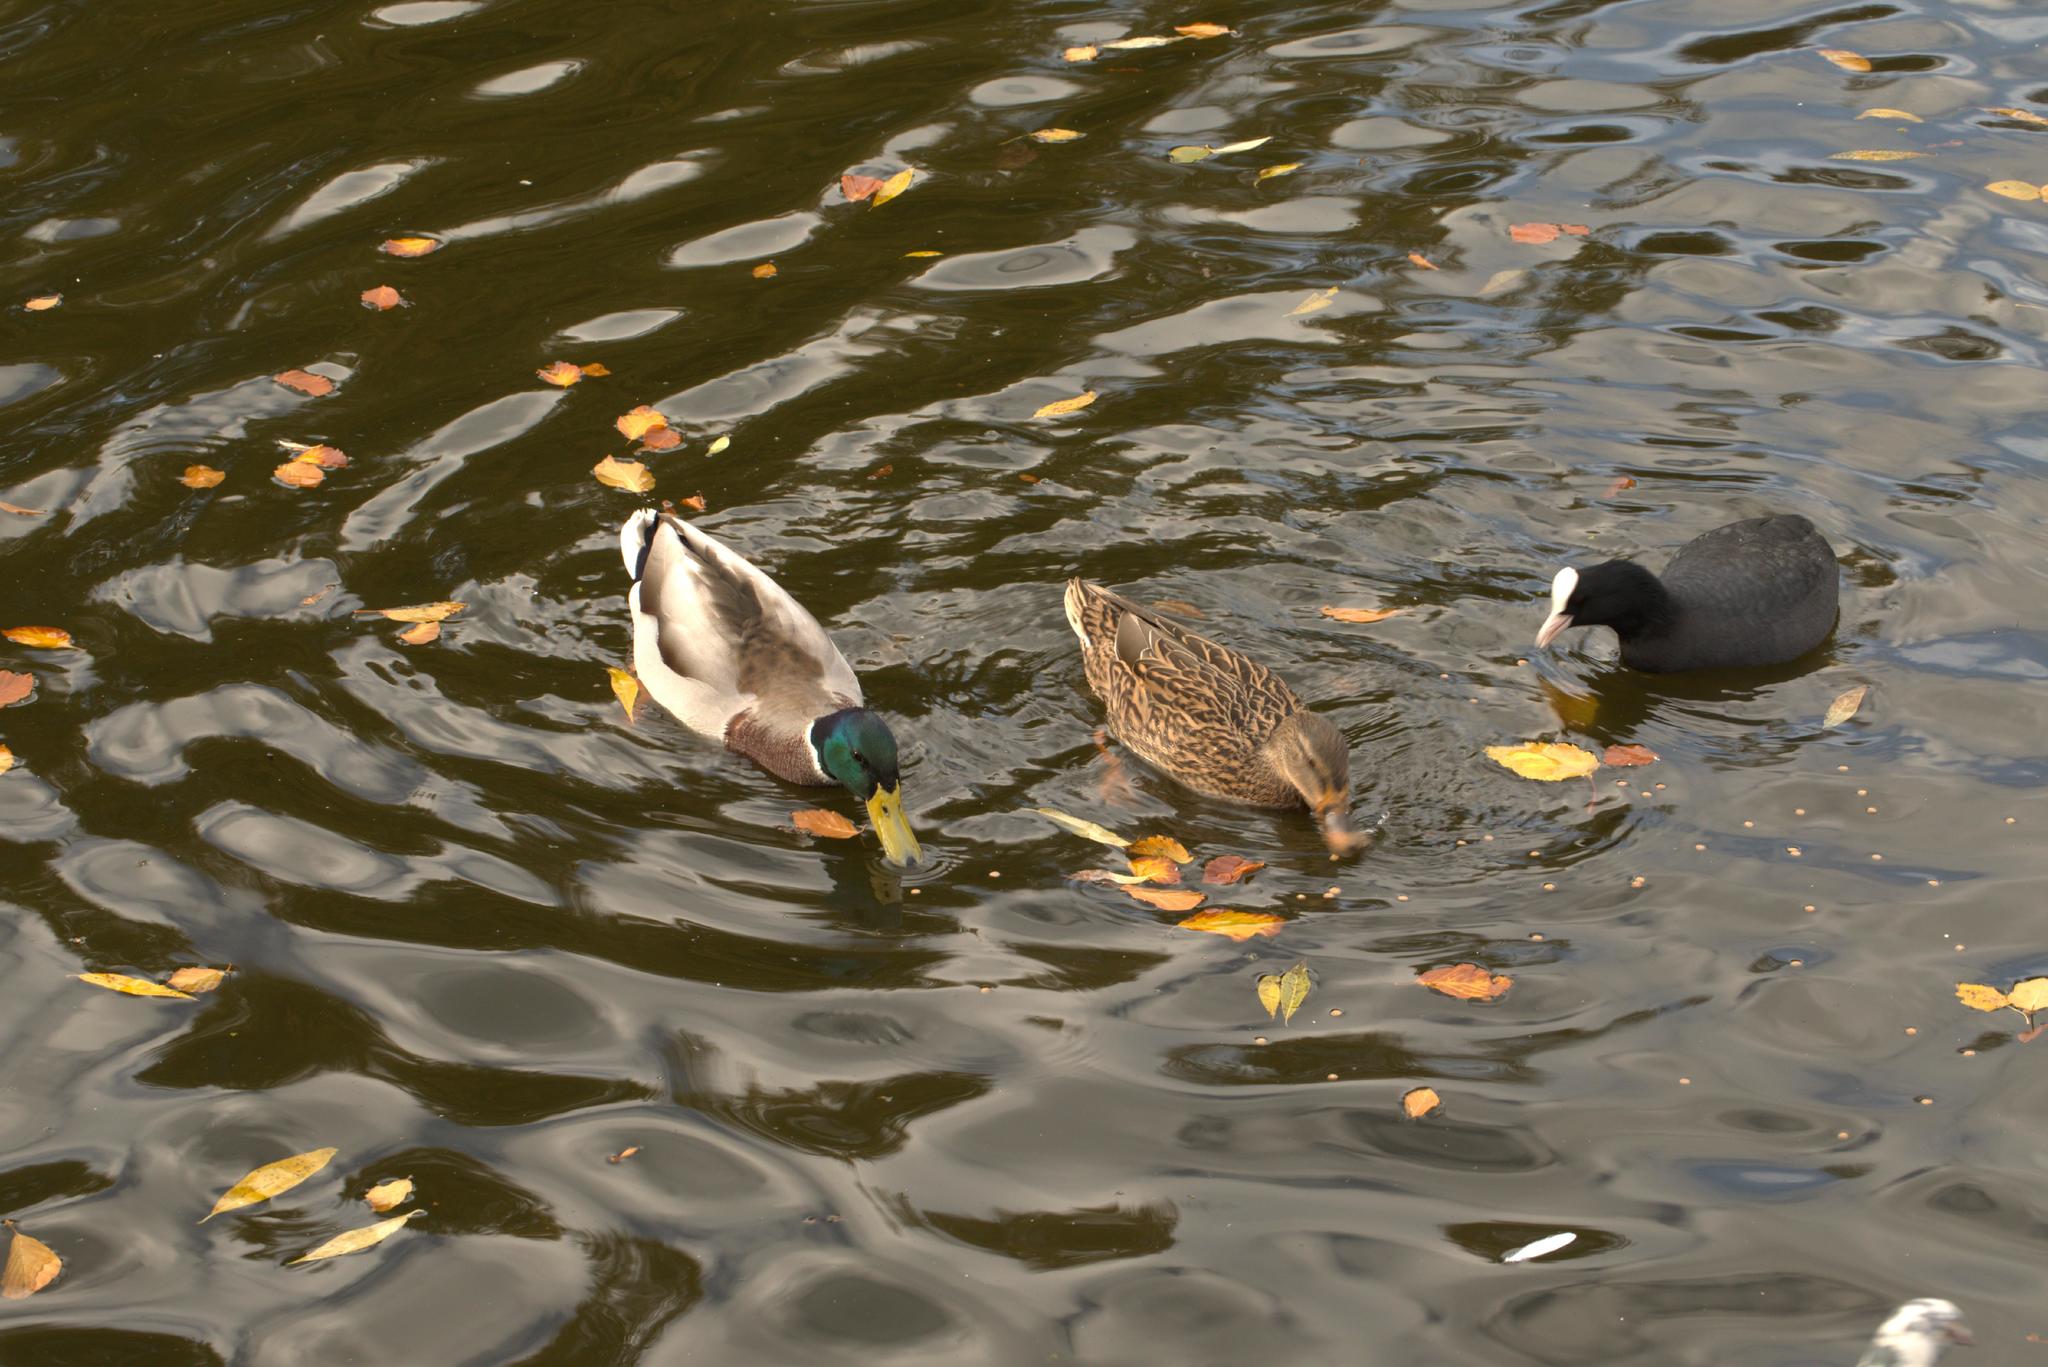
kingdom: Animalia
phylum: Chordata
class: Aves
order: Anseriformes
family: Anatidae
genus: Anas
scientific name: Anas platyrhynchos
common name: Mallard
